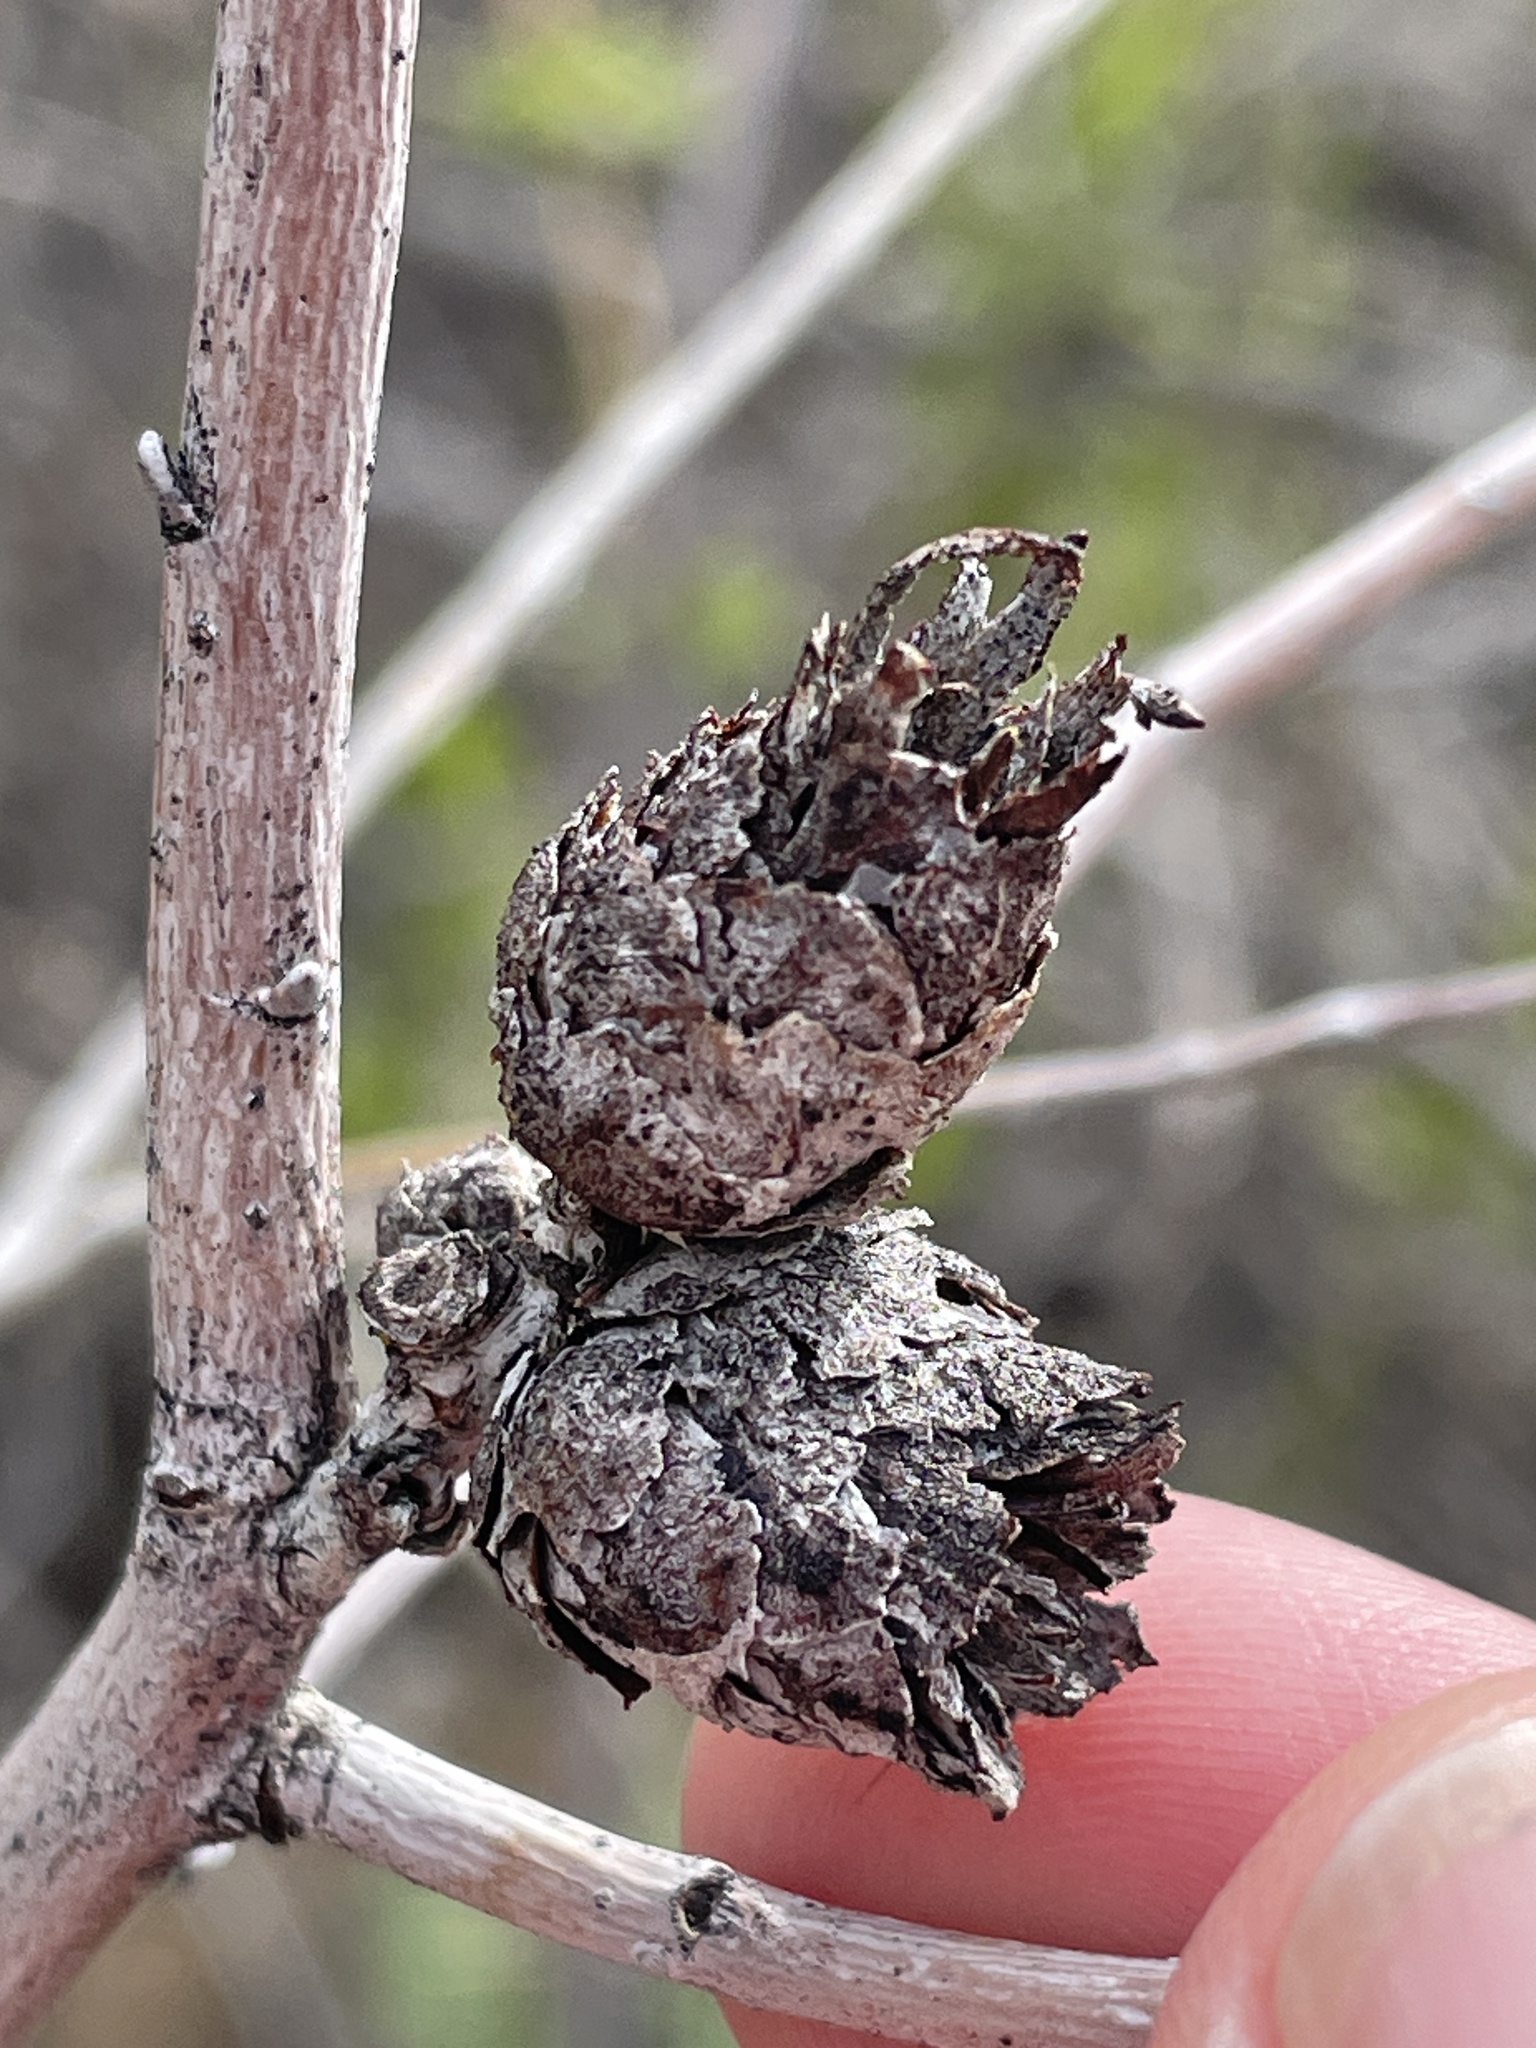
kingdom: Animalia
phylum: Arthropoda
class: Insecta
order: Diptera
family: Cecidomyiidae
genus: Rabdophaga
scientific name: Rabdophaga strobiloides
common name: Willow pinecone gall midge
